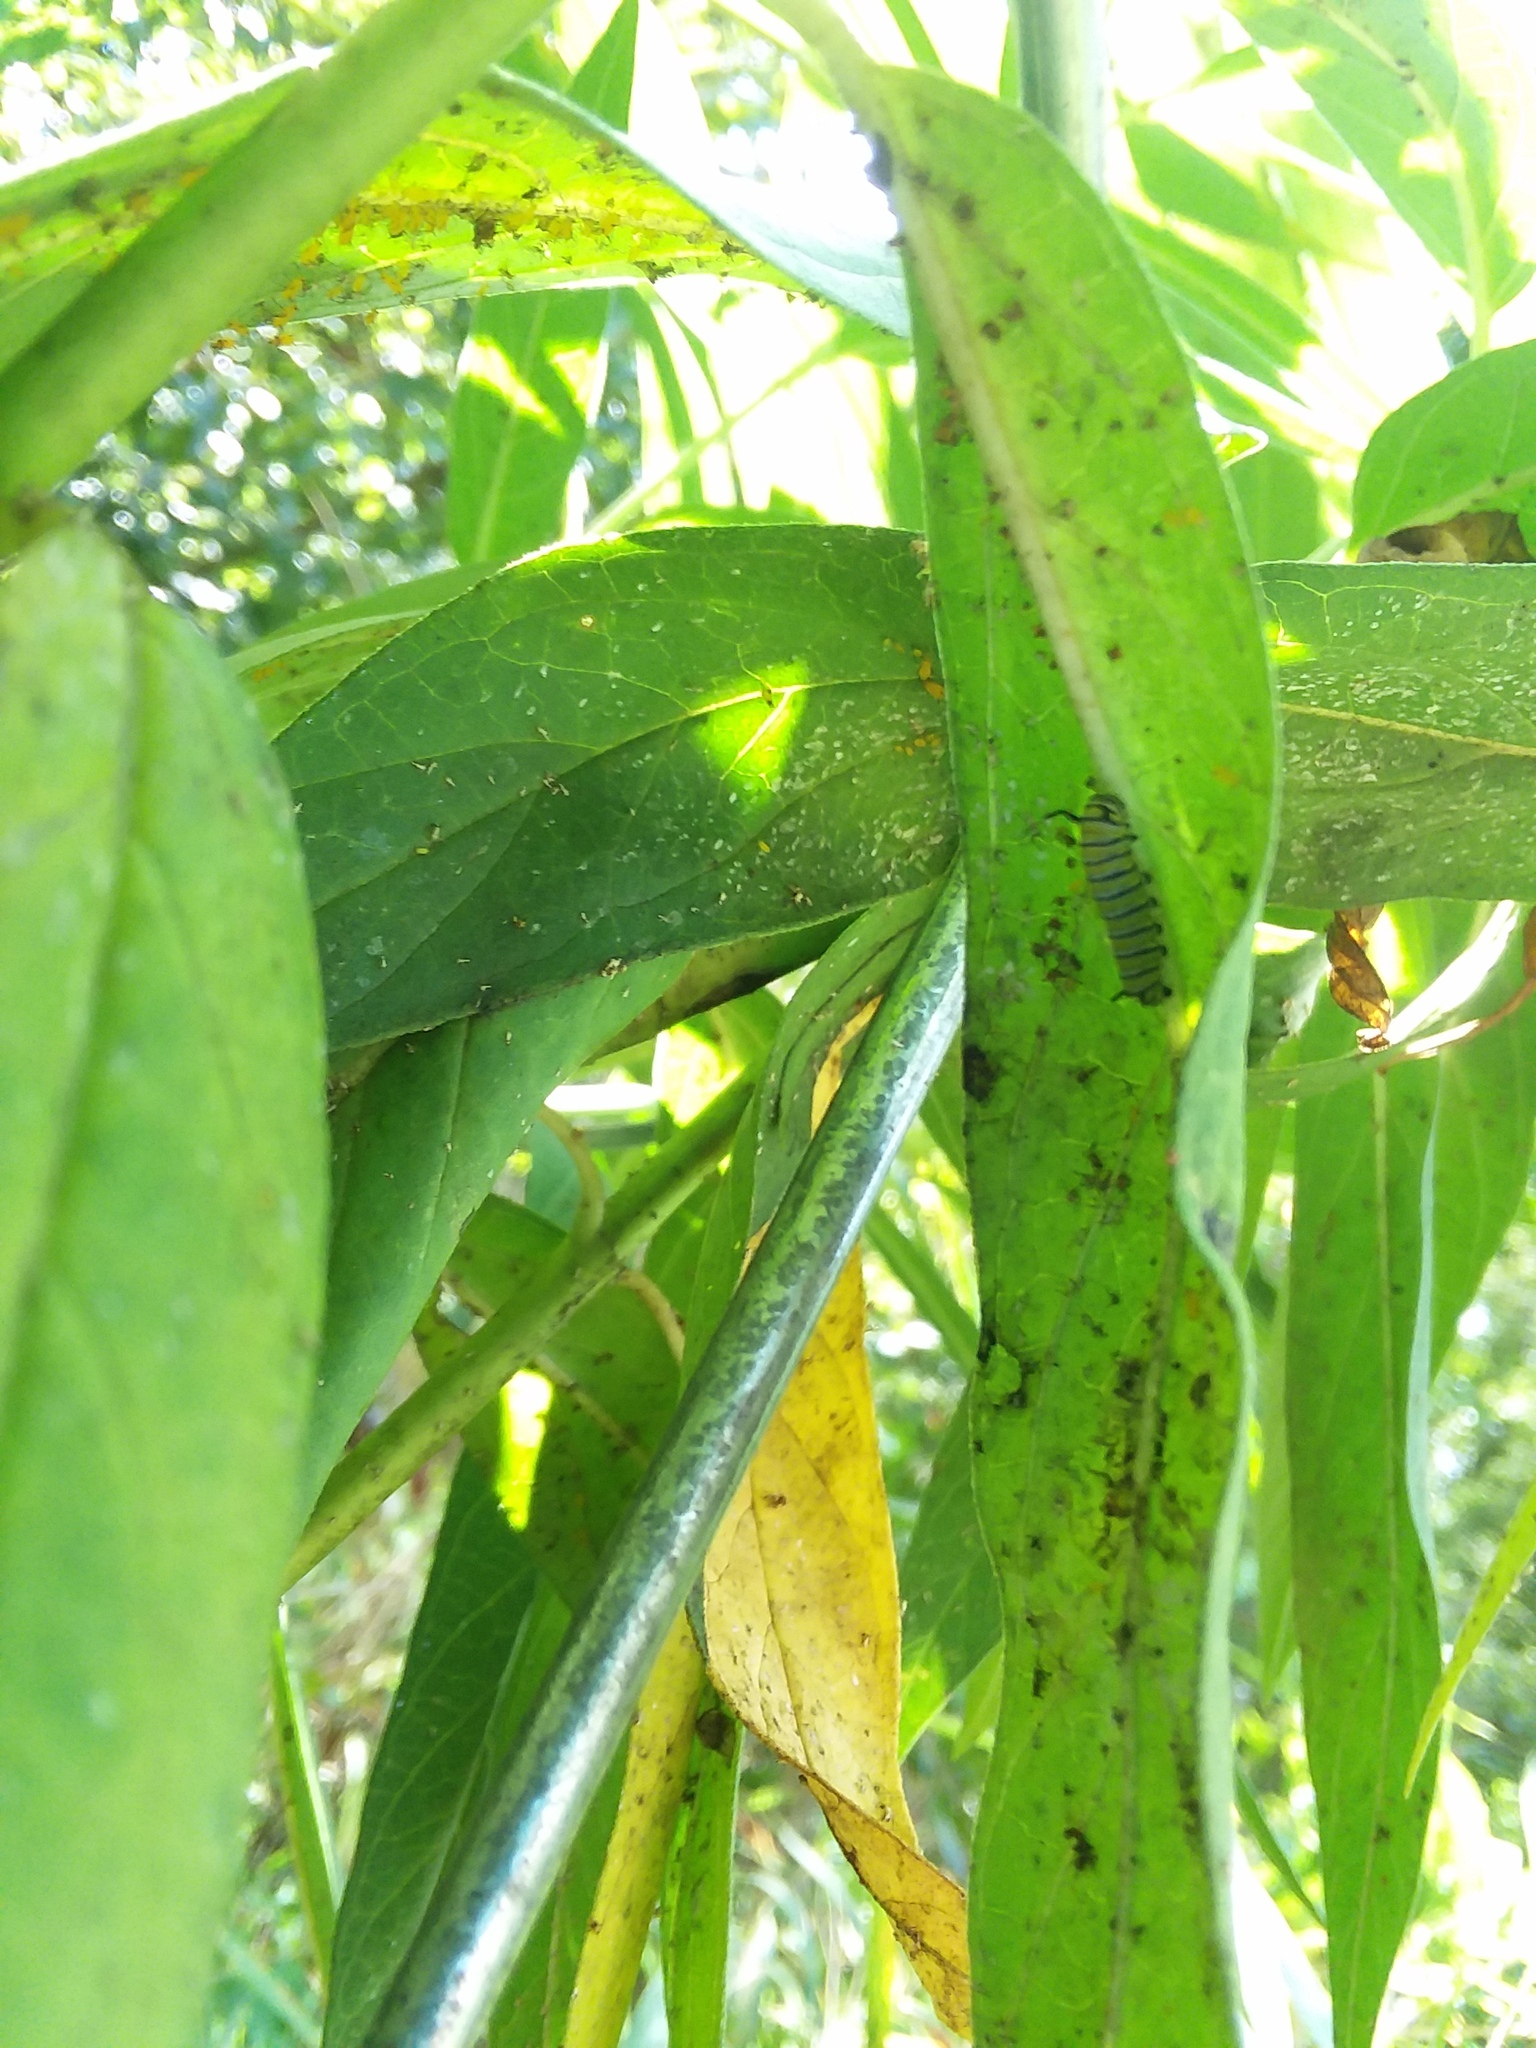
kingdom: Animalia
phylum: Arthropoda
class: Insecta
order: Lepidoptera
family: Nymphalidae
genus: Danaus
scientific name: Danaus plexippus
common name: Monarch
